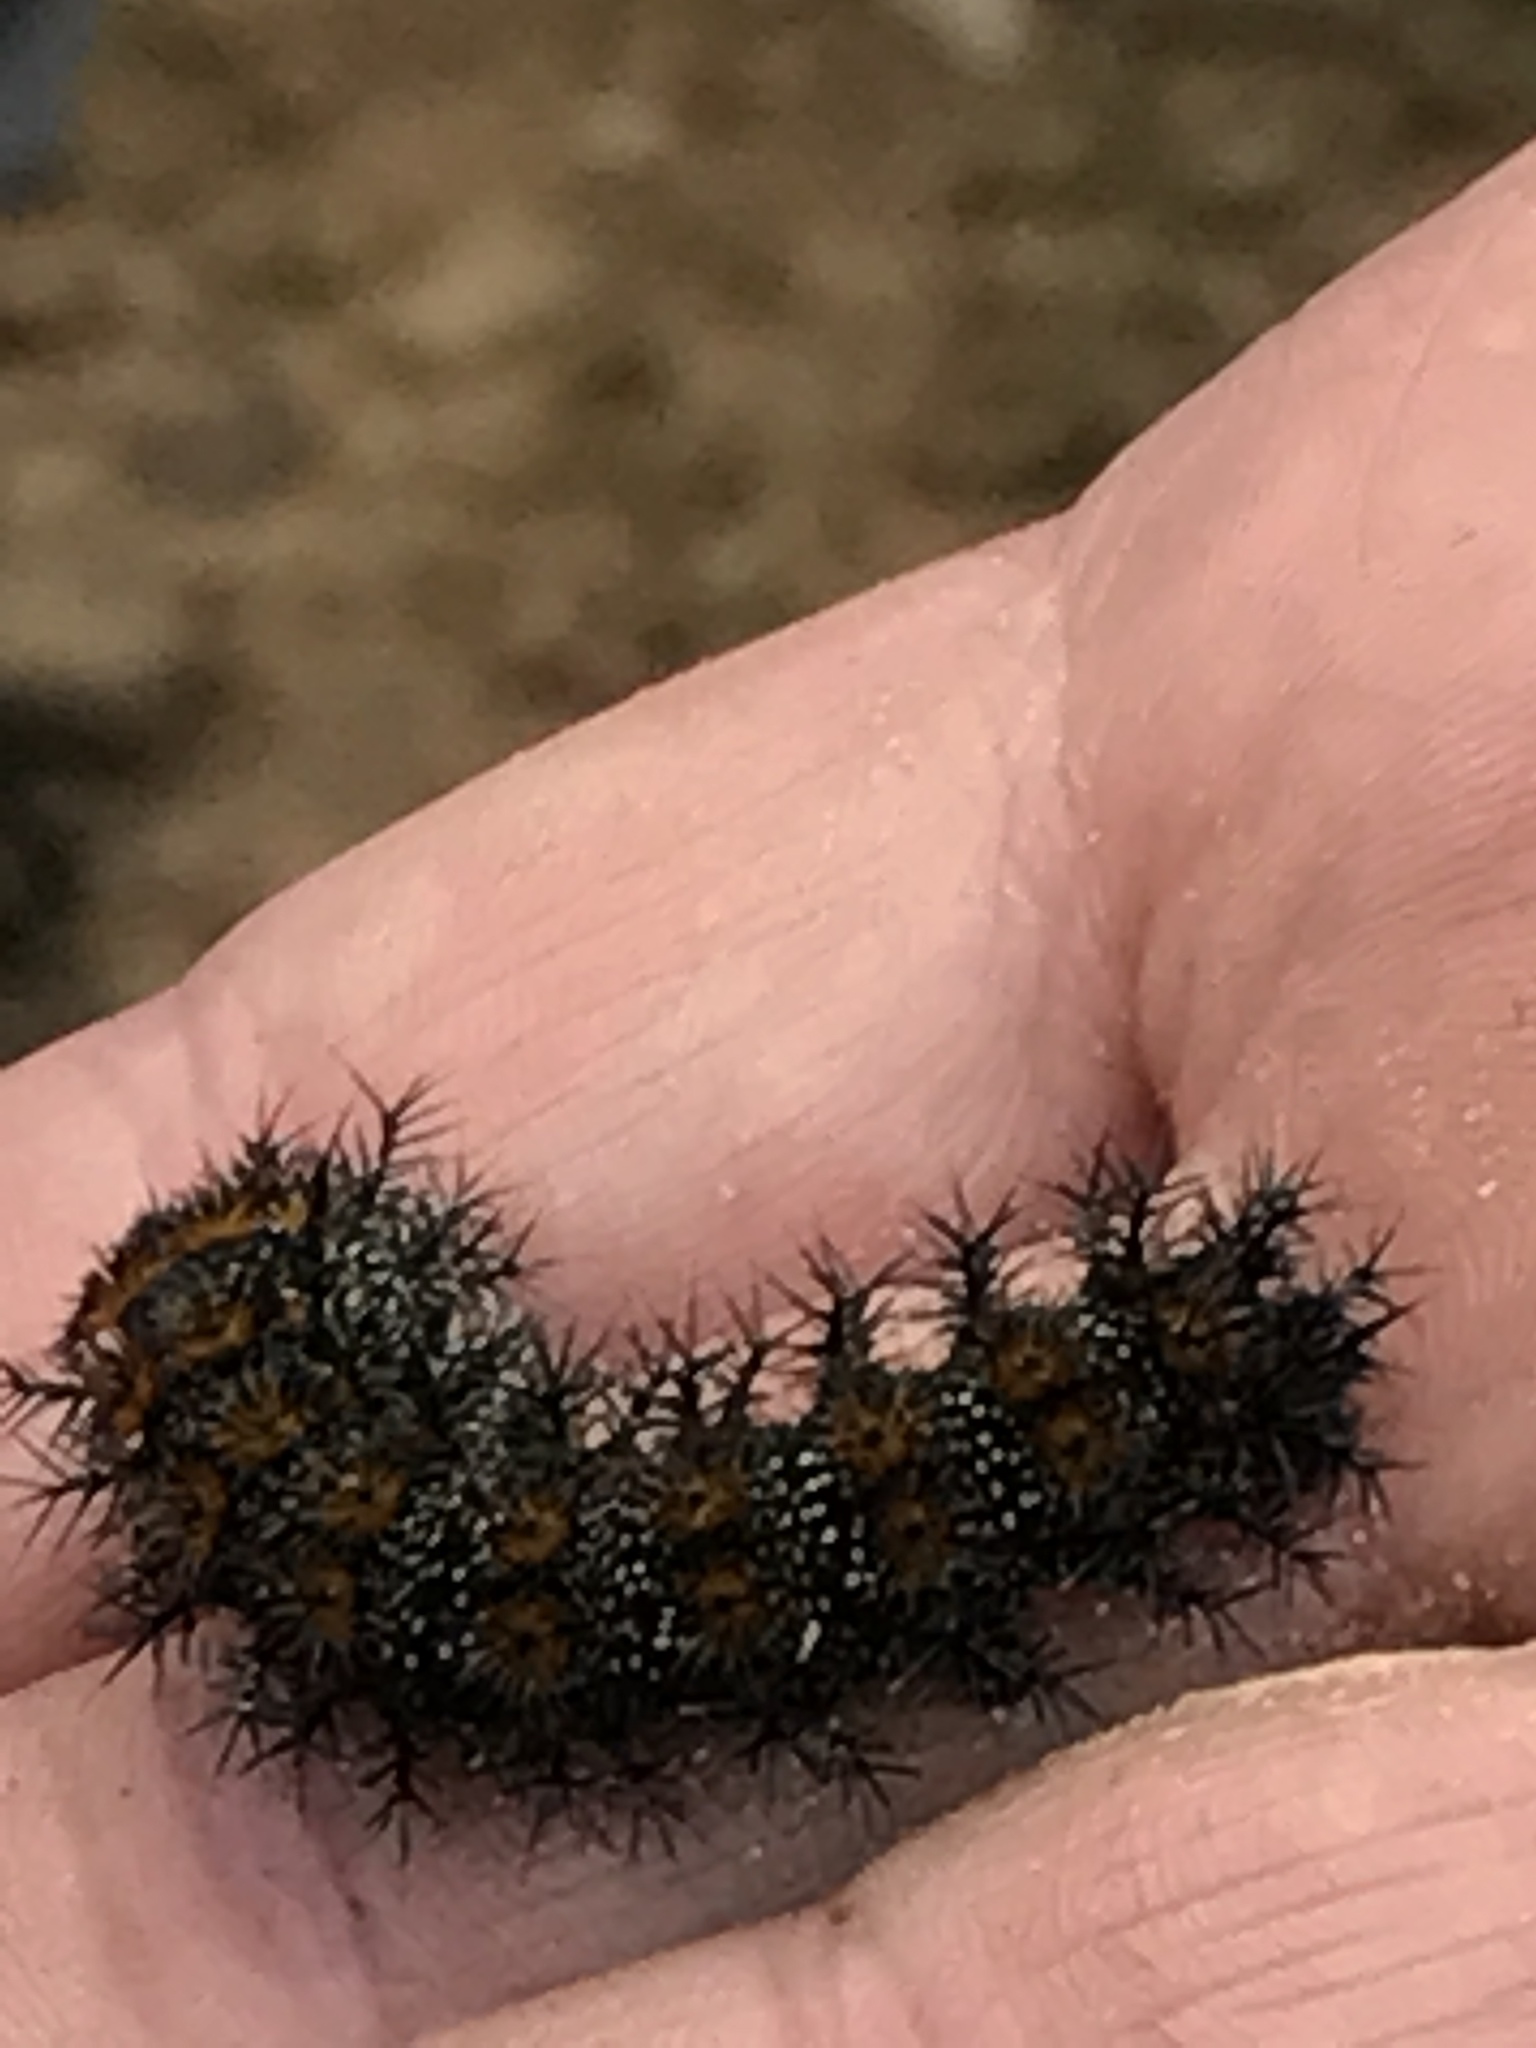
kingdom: Animalia
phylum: Arthropoda
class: Insecta
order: Lepidoptera
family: Saturniidae
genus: Hemileuca
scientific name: Hemileuca maia
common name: Eastern buckmoth
